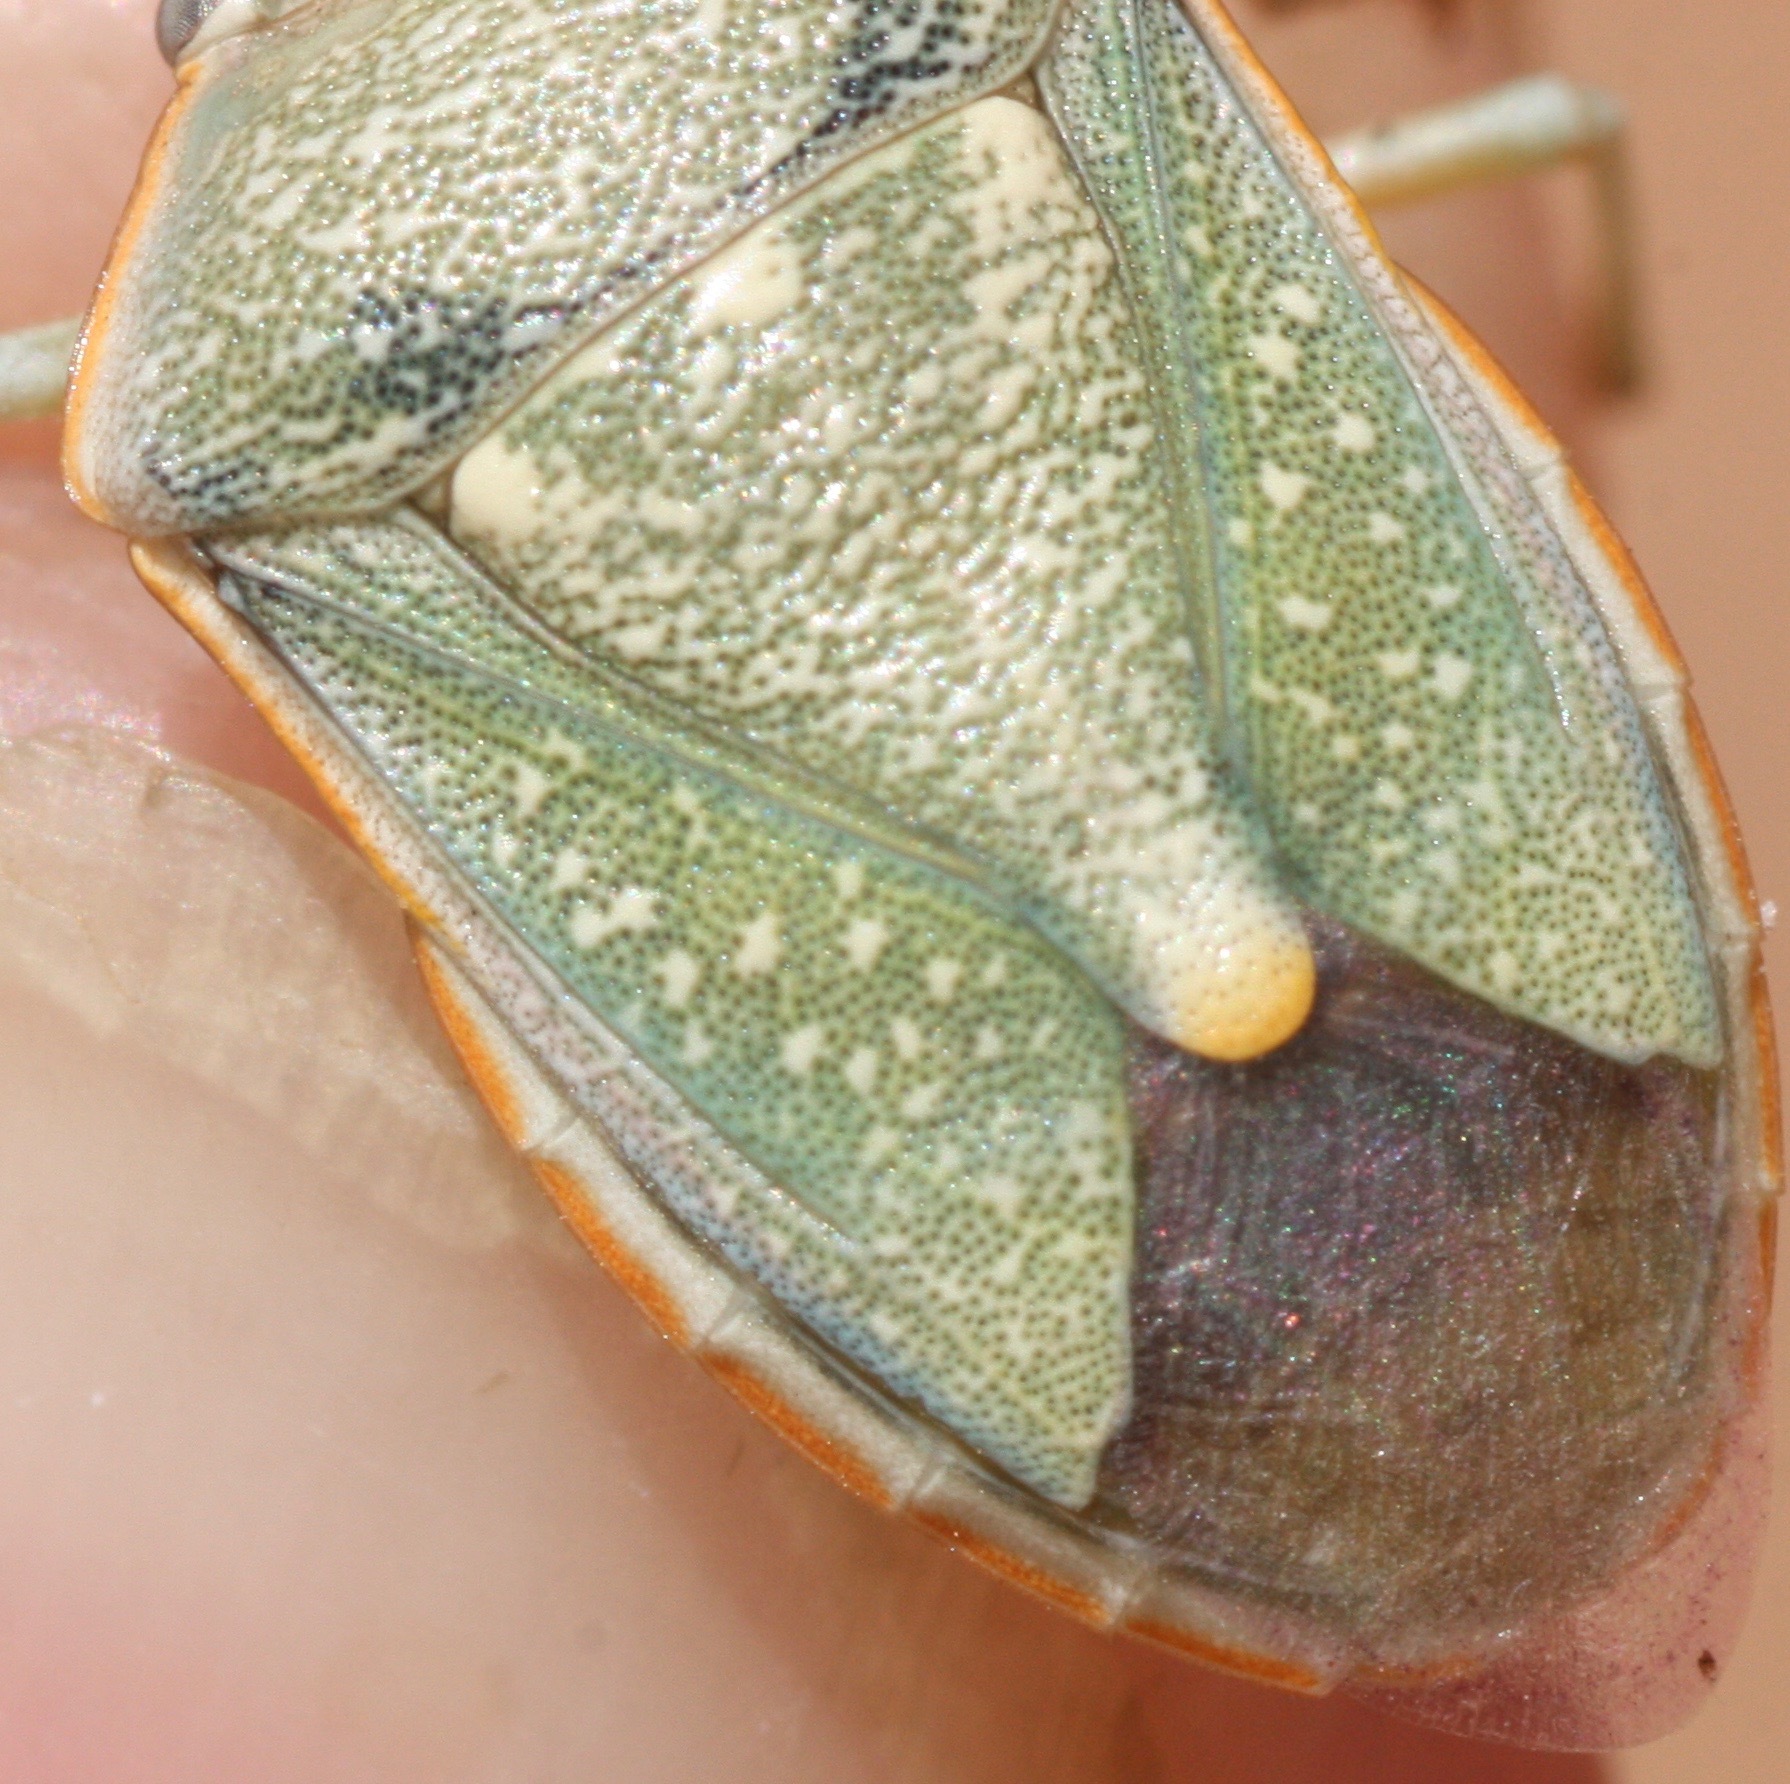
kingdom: Animalia
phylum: Arthropoda
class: Insecta
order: Hemiptera
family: Pentatomidae
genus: Chlorochroa
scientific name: Chlorochroa sayi
